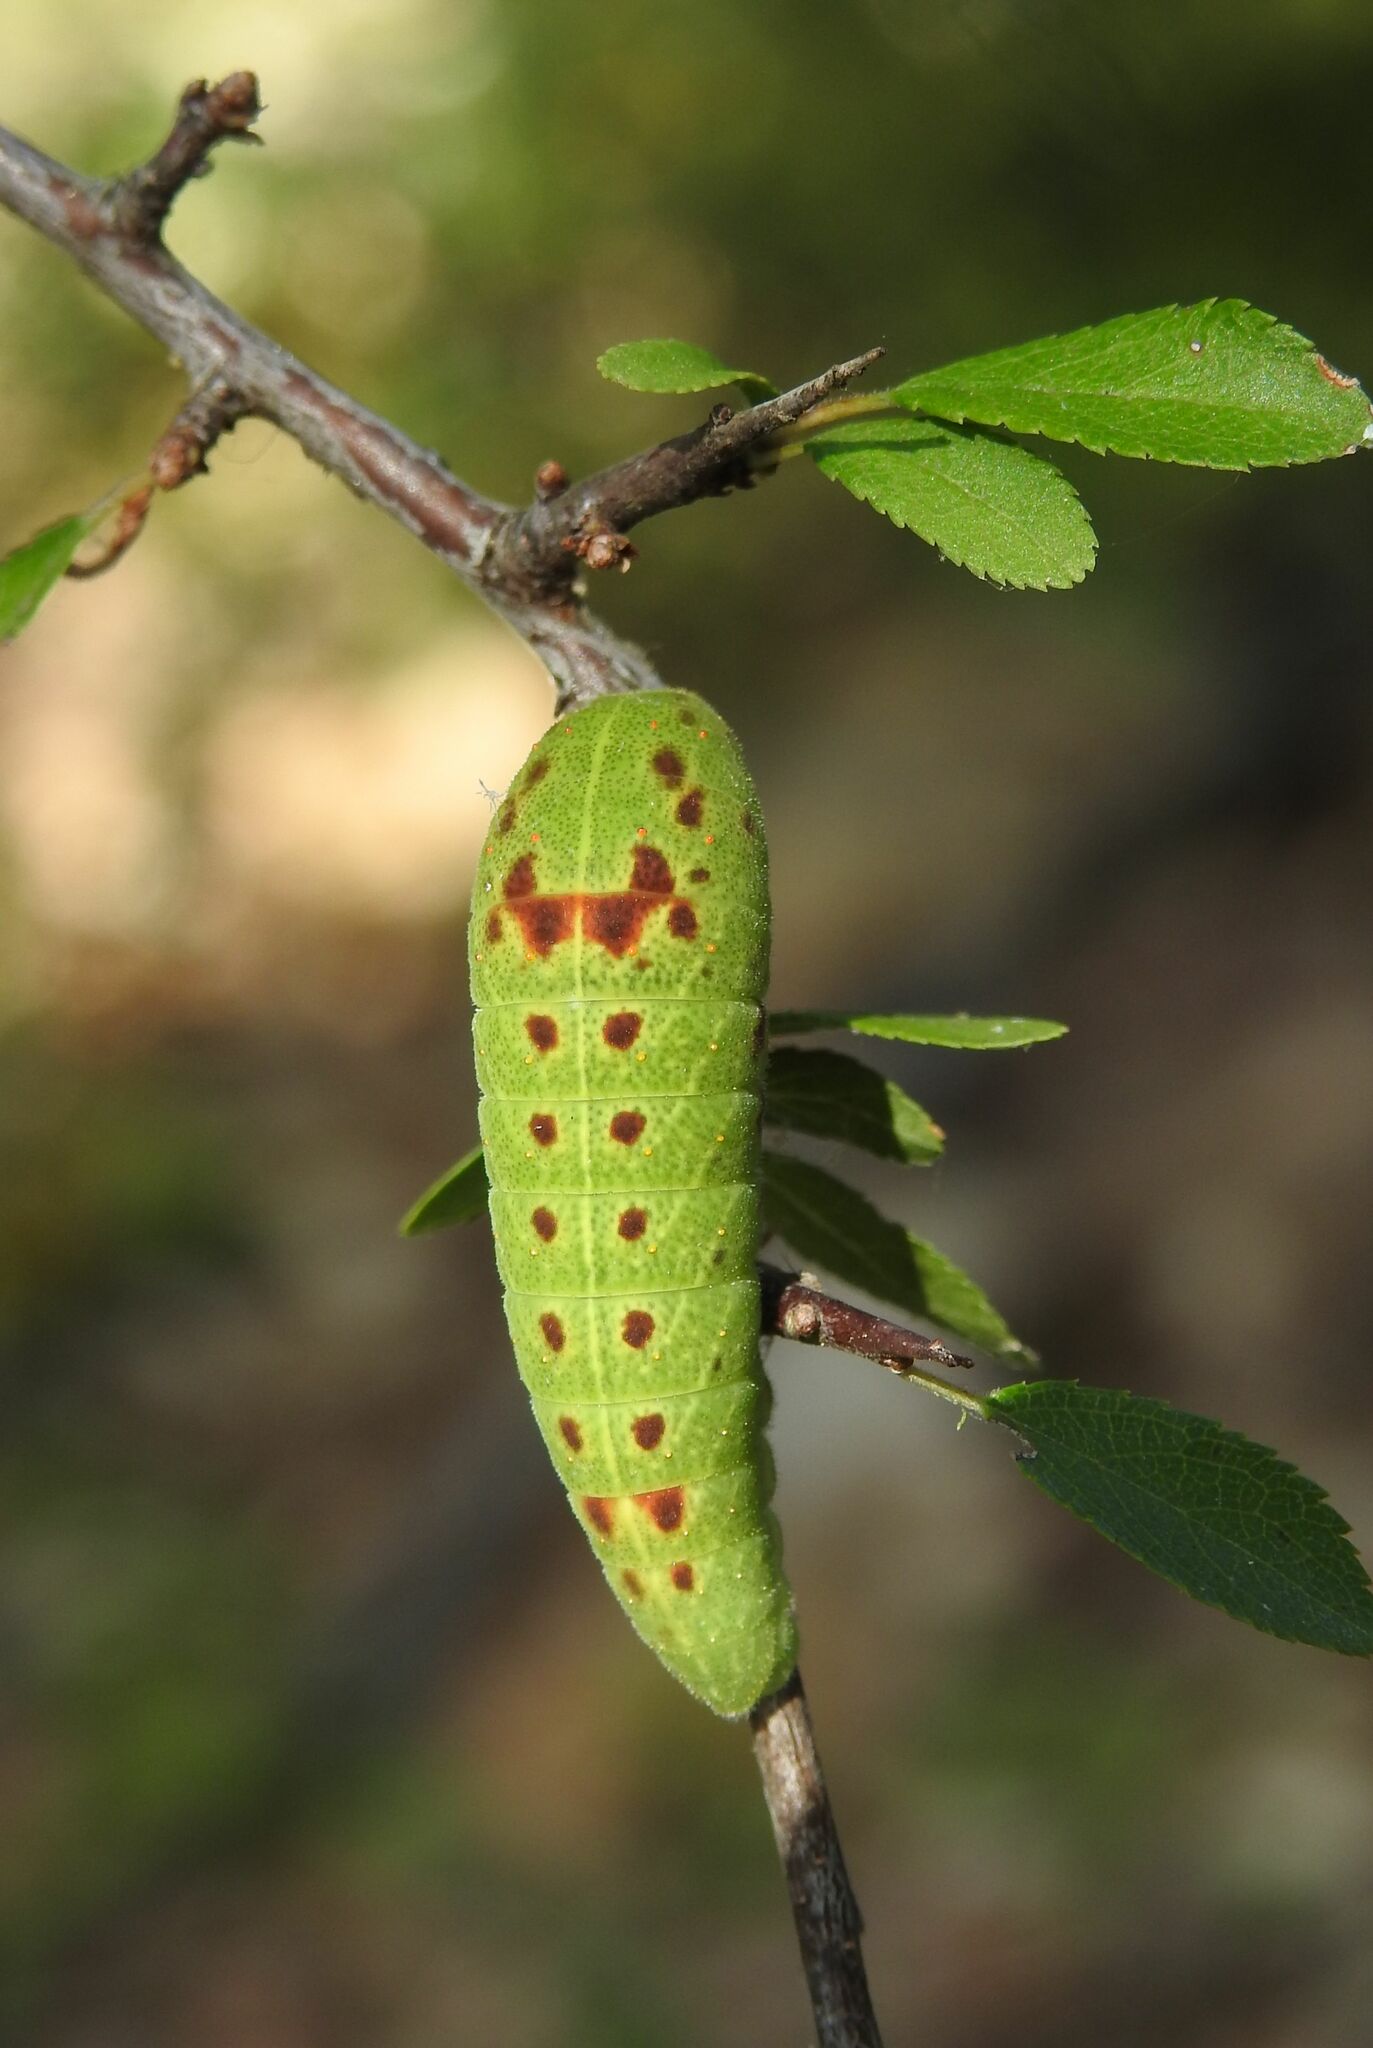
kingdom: Animalia
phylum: Arthropoda
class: Insecta
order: Lepidoptera
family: Papilionidae
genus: Iphiclides
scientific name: Iphiclides podalirius
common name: Scarce swallowtail
